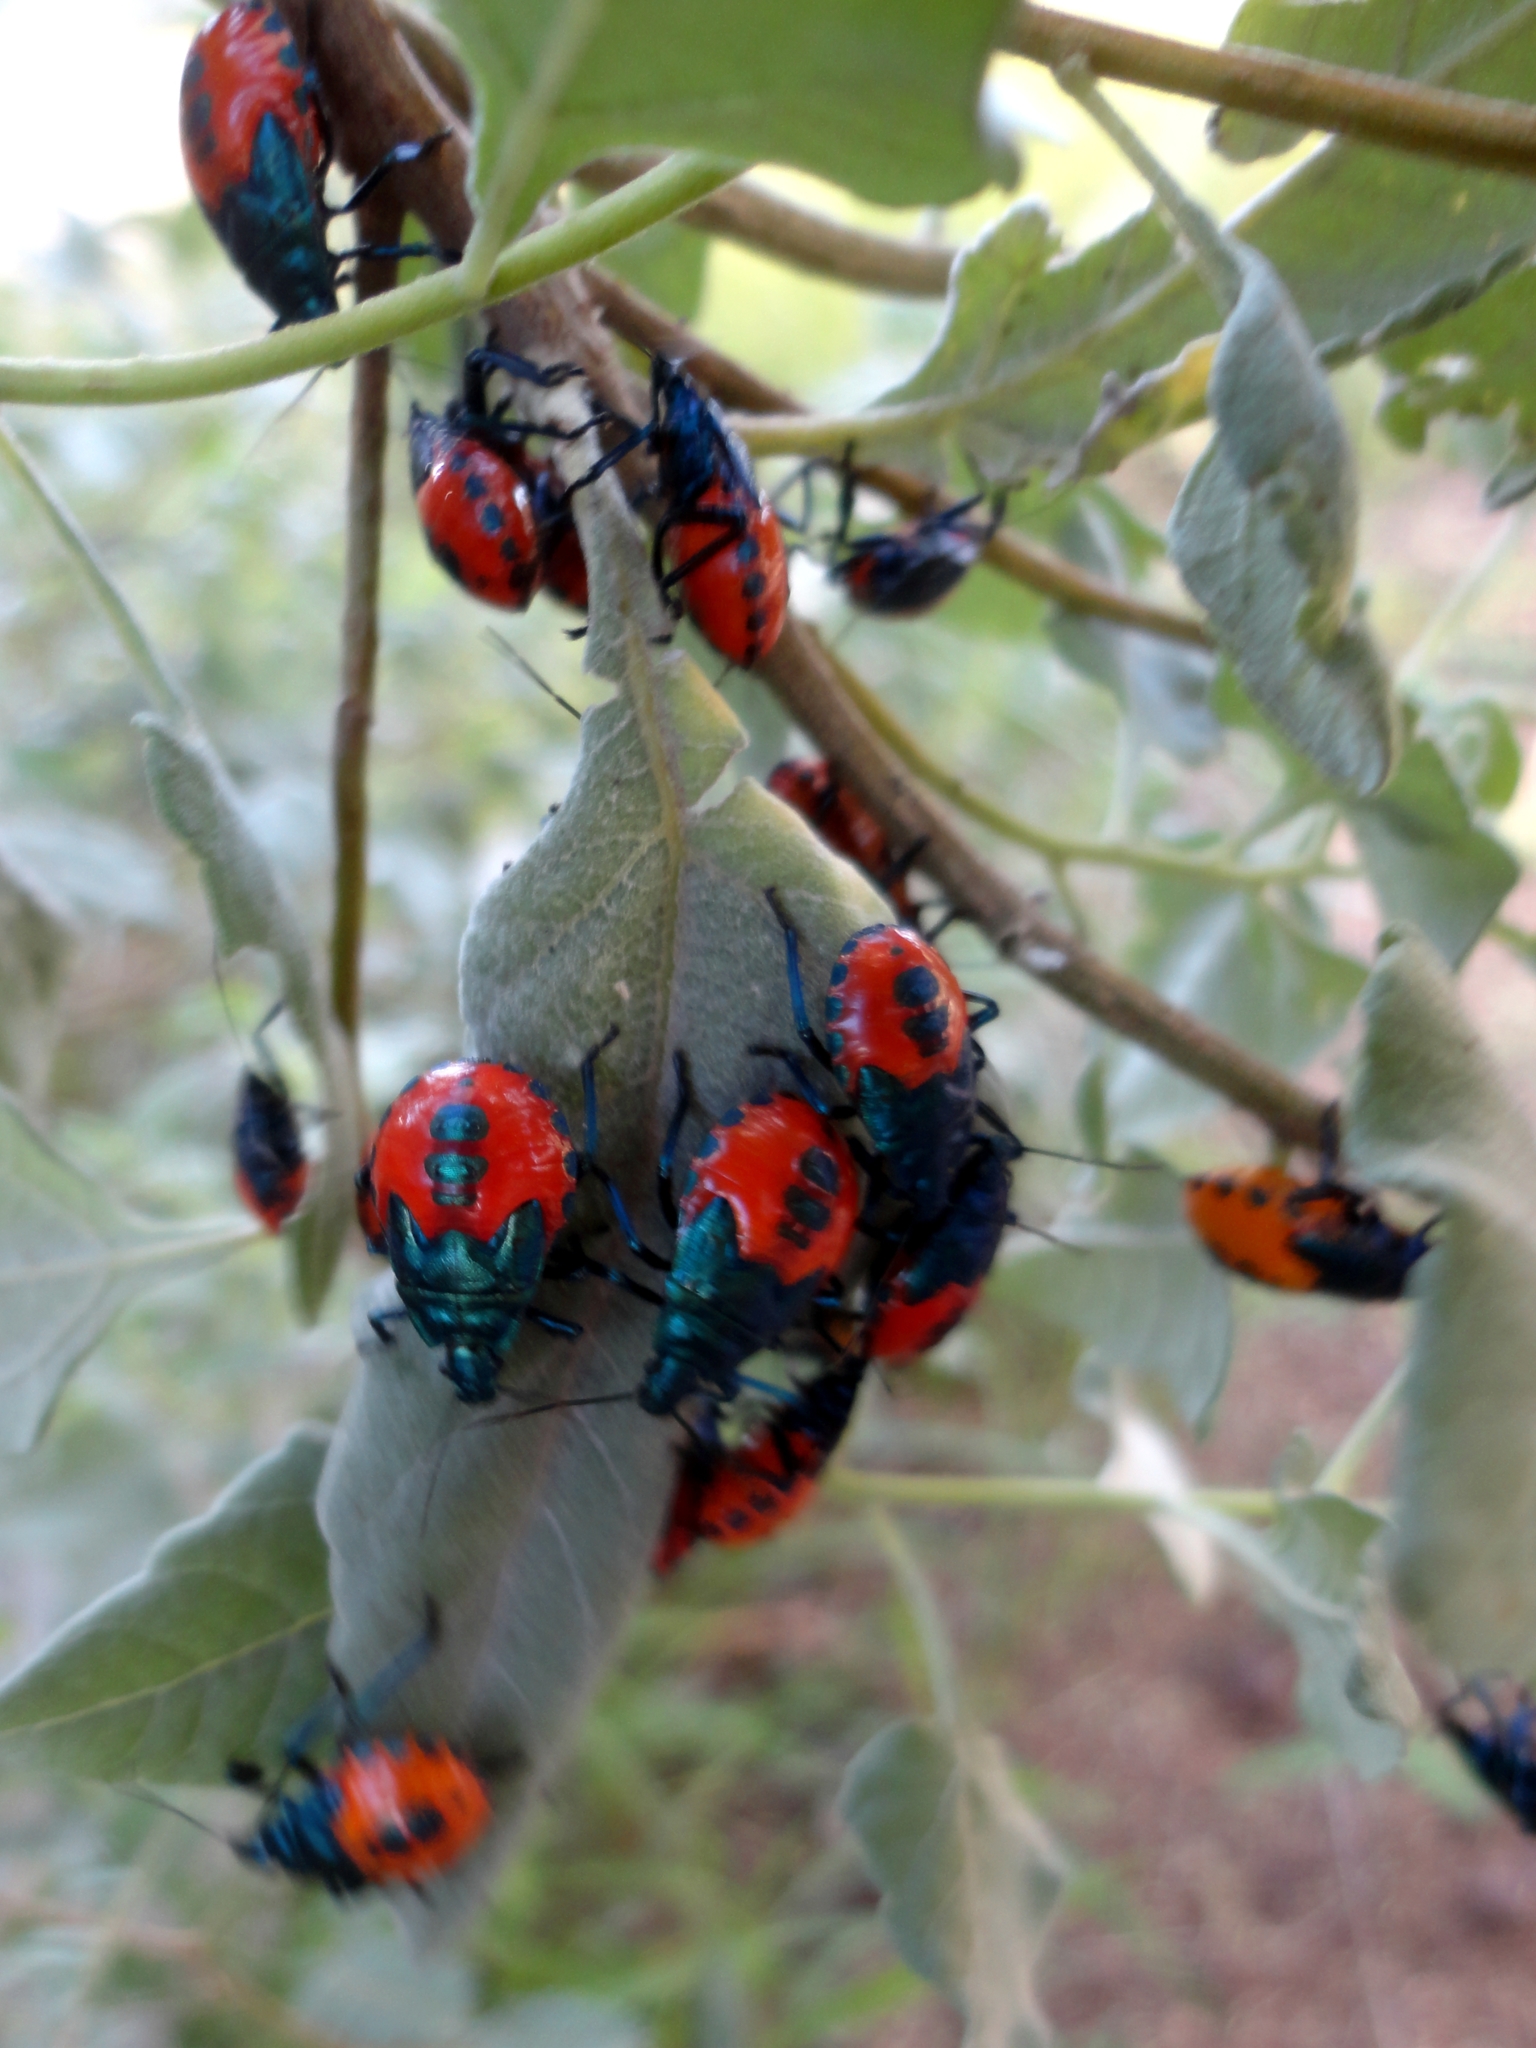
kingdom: Animalia
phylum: Arthropoda
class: Insecta
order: Hemiptera
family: Pentatomidae
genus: Euthyrhynchus
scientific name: Euthyrhynchus floridanus
